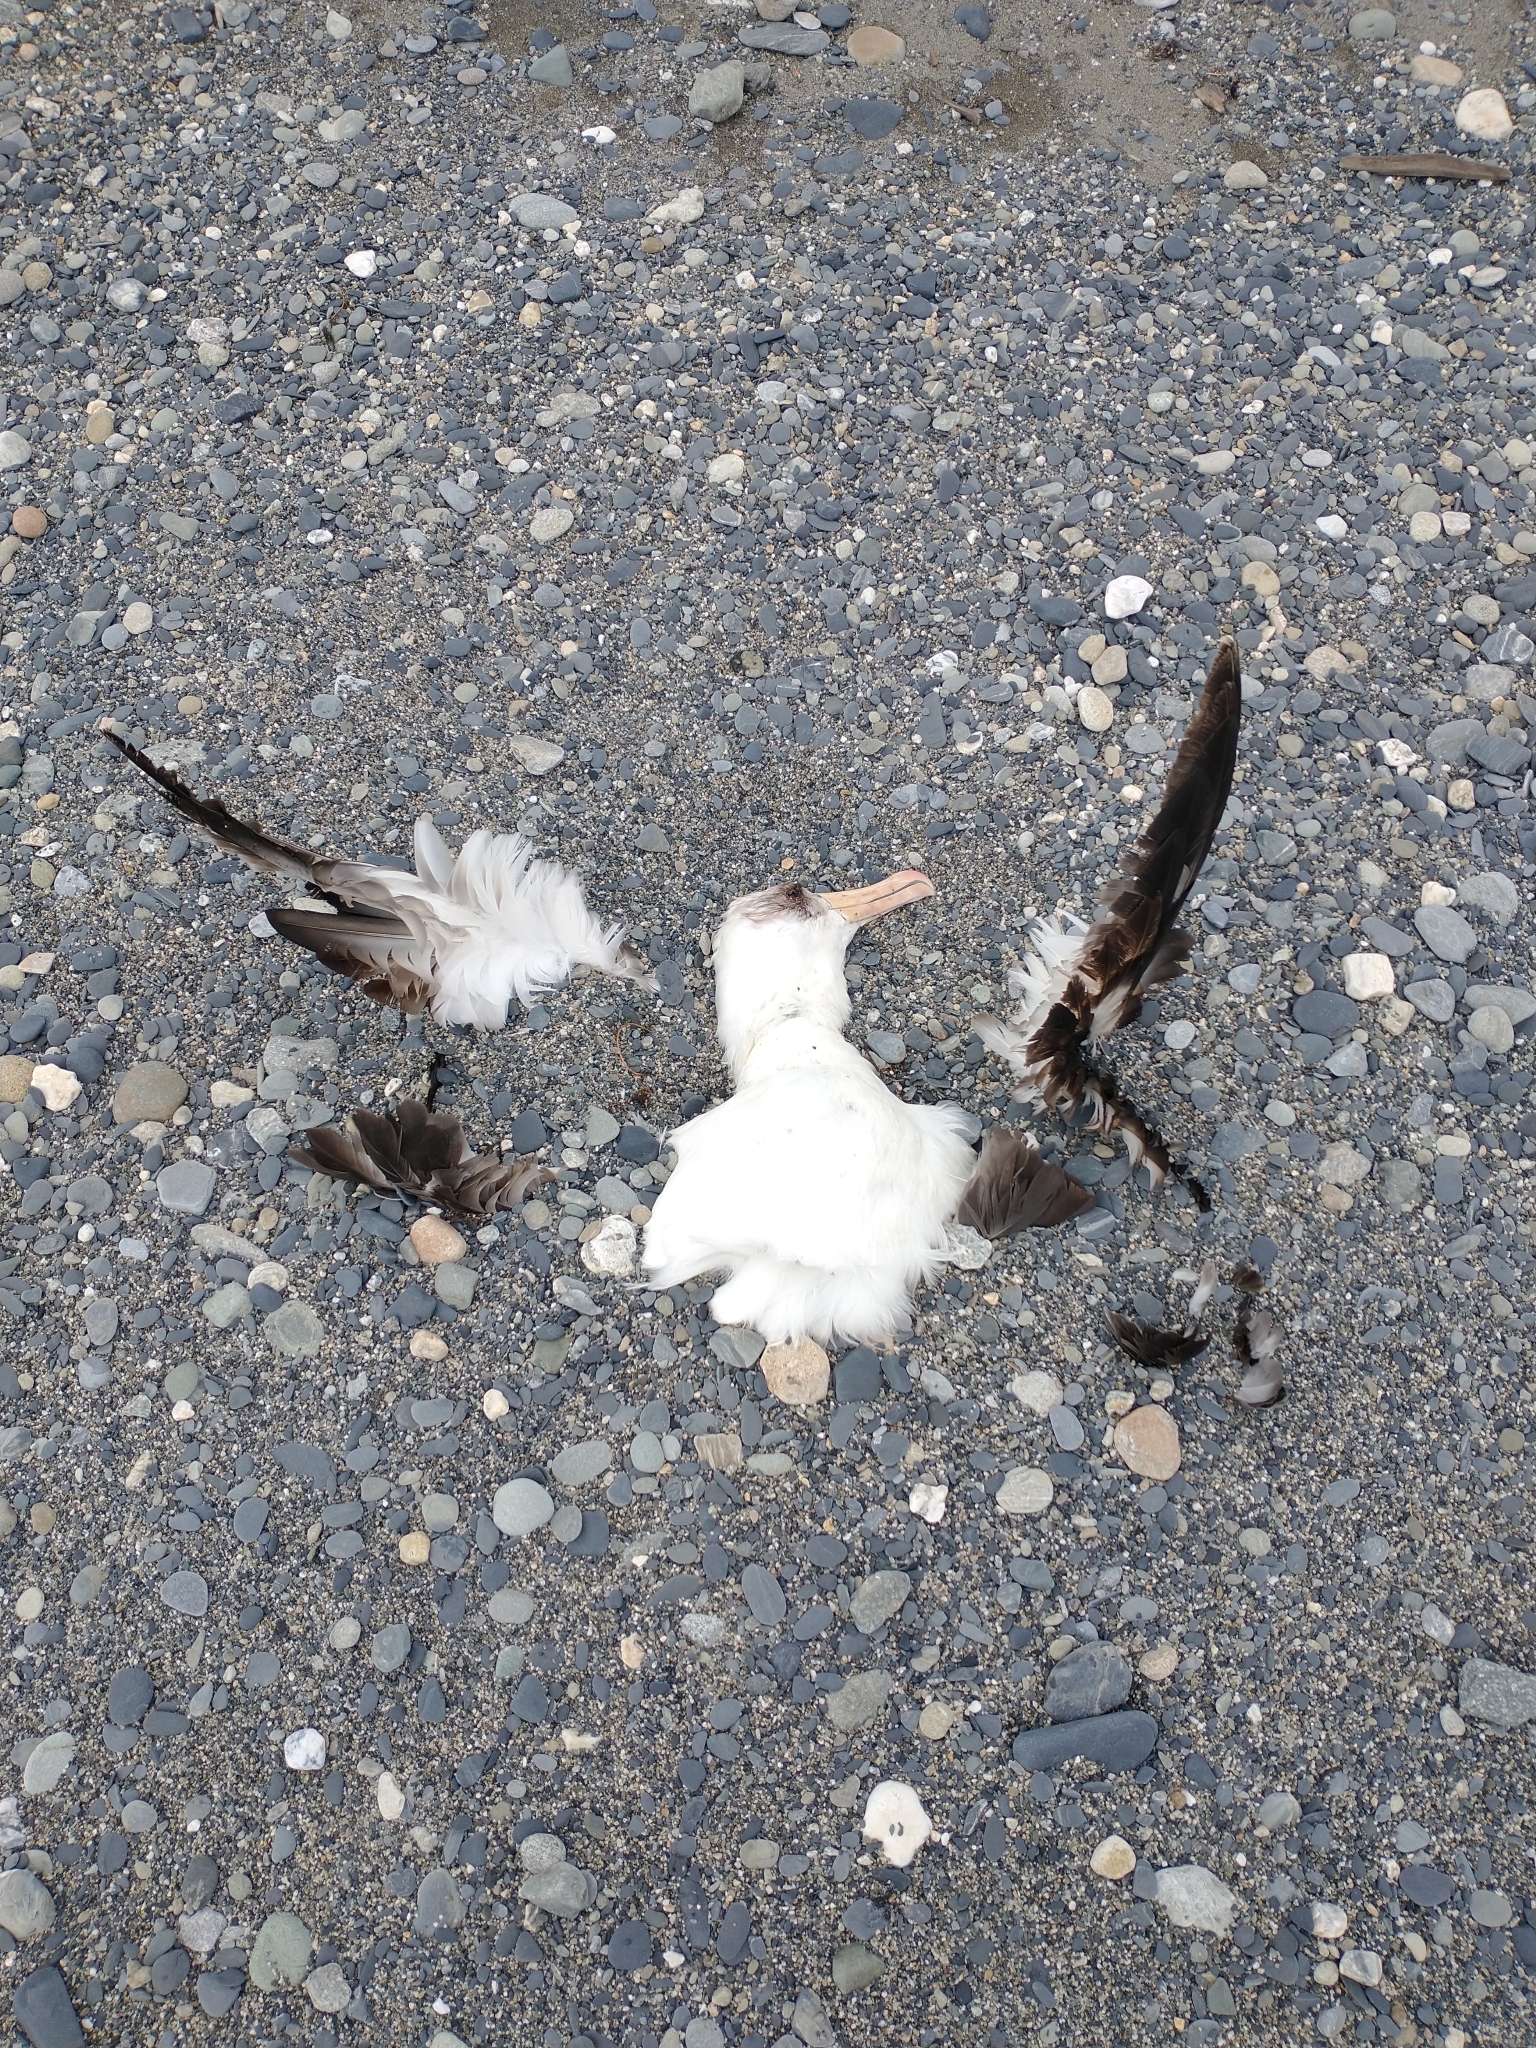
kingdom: Animalia
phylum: Chordata
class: Aves
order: Procellariiformes
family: Diomedeidae
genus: Thalassarche
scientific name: Thalassarche melanophris
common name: Black-browed albatross
